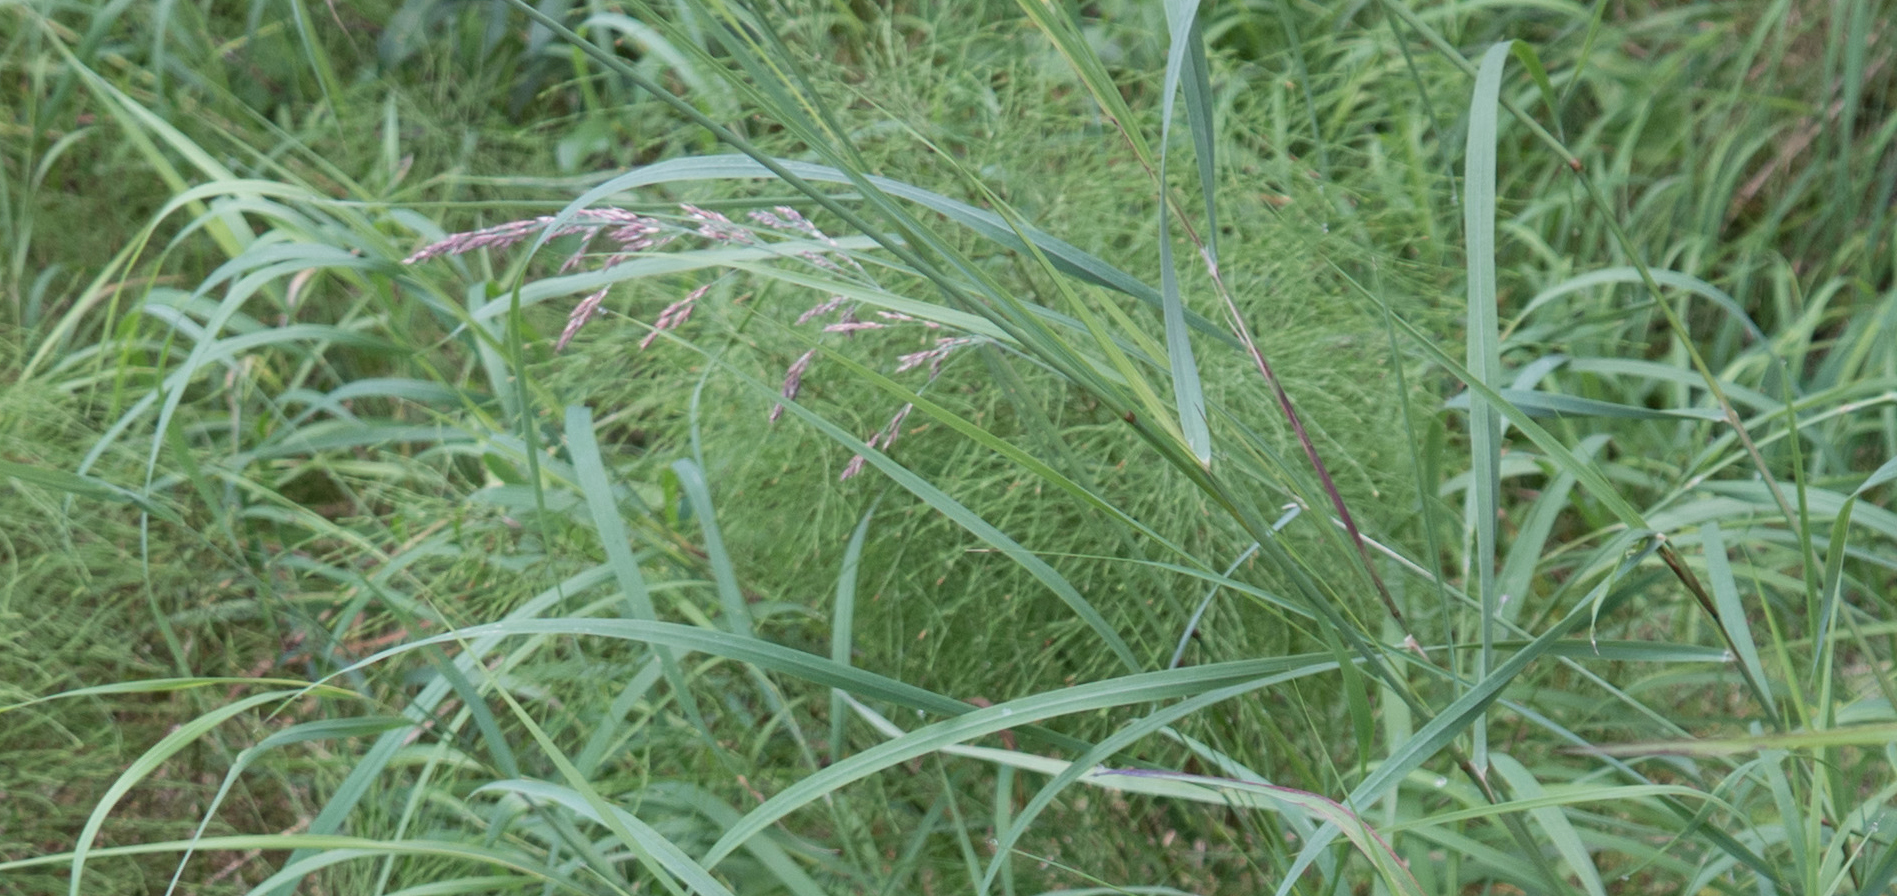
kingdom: Plantae
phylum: Tracheophyta
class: Liliopsida
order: Poales
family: Poaceae
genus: Calamagrostis
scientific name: Calamagrostis canadensis
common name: Canada bluejoint
